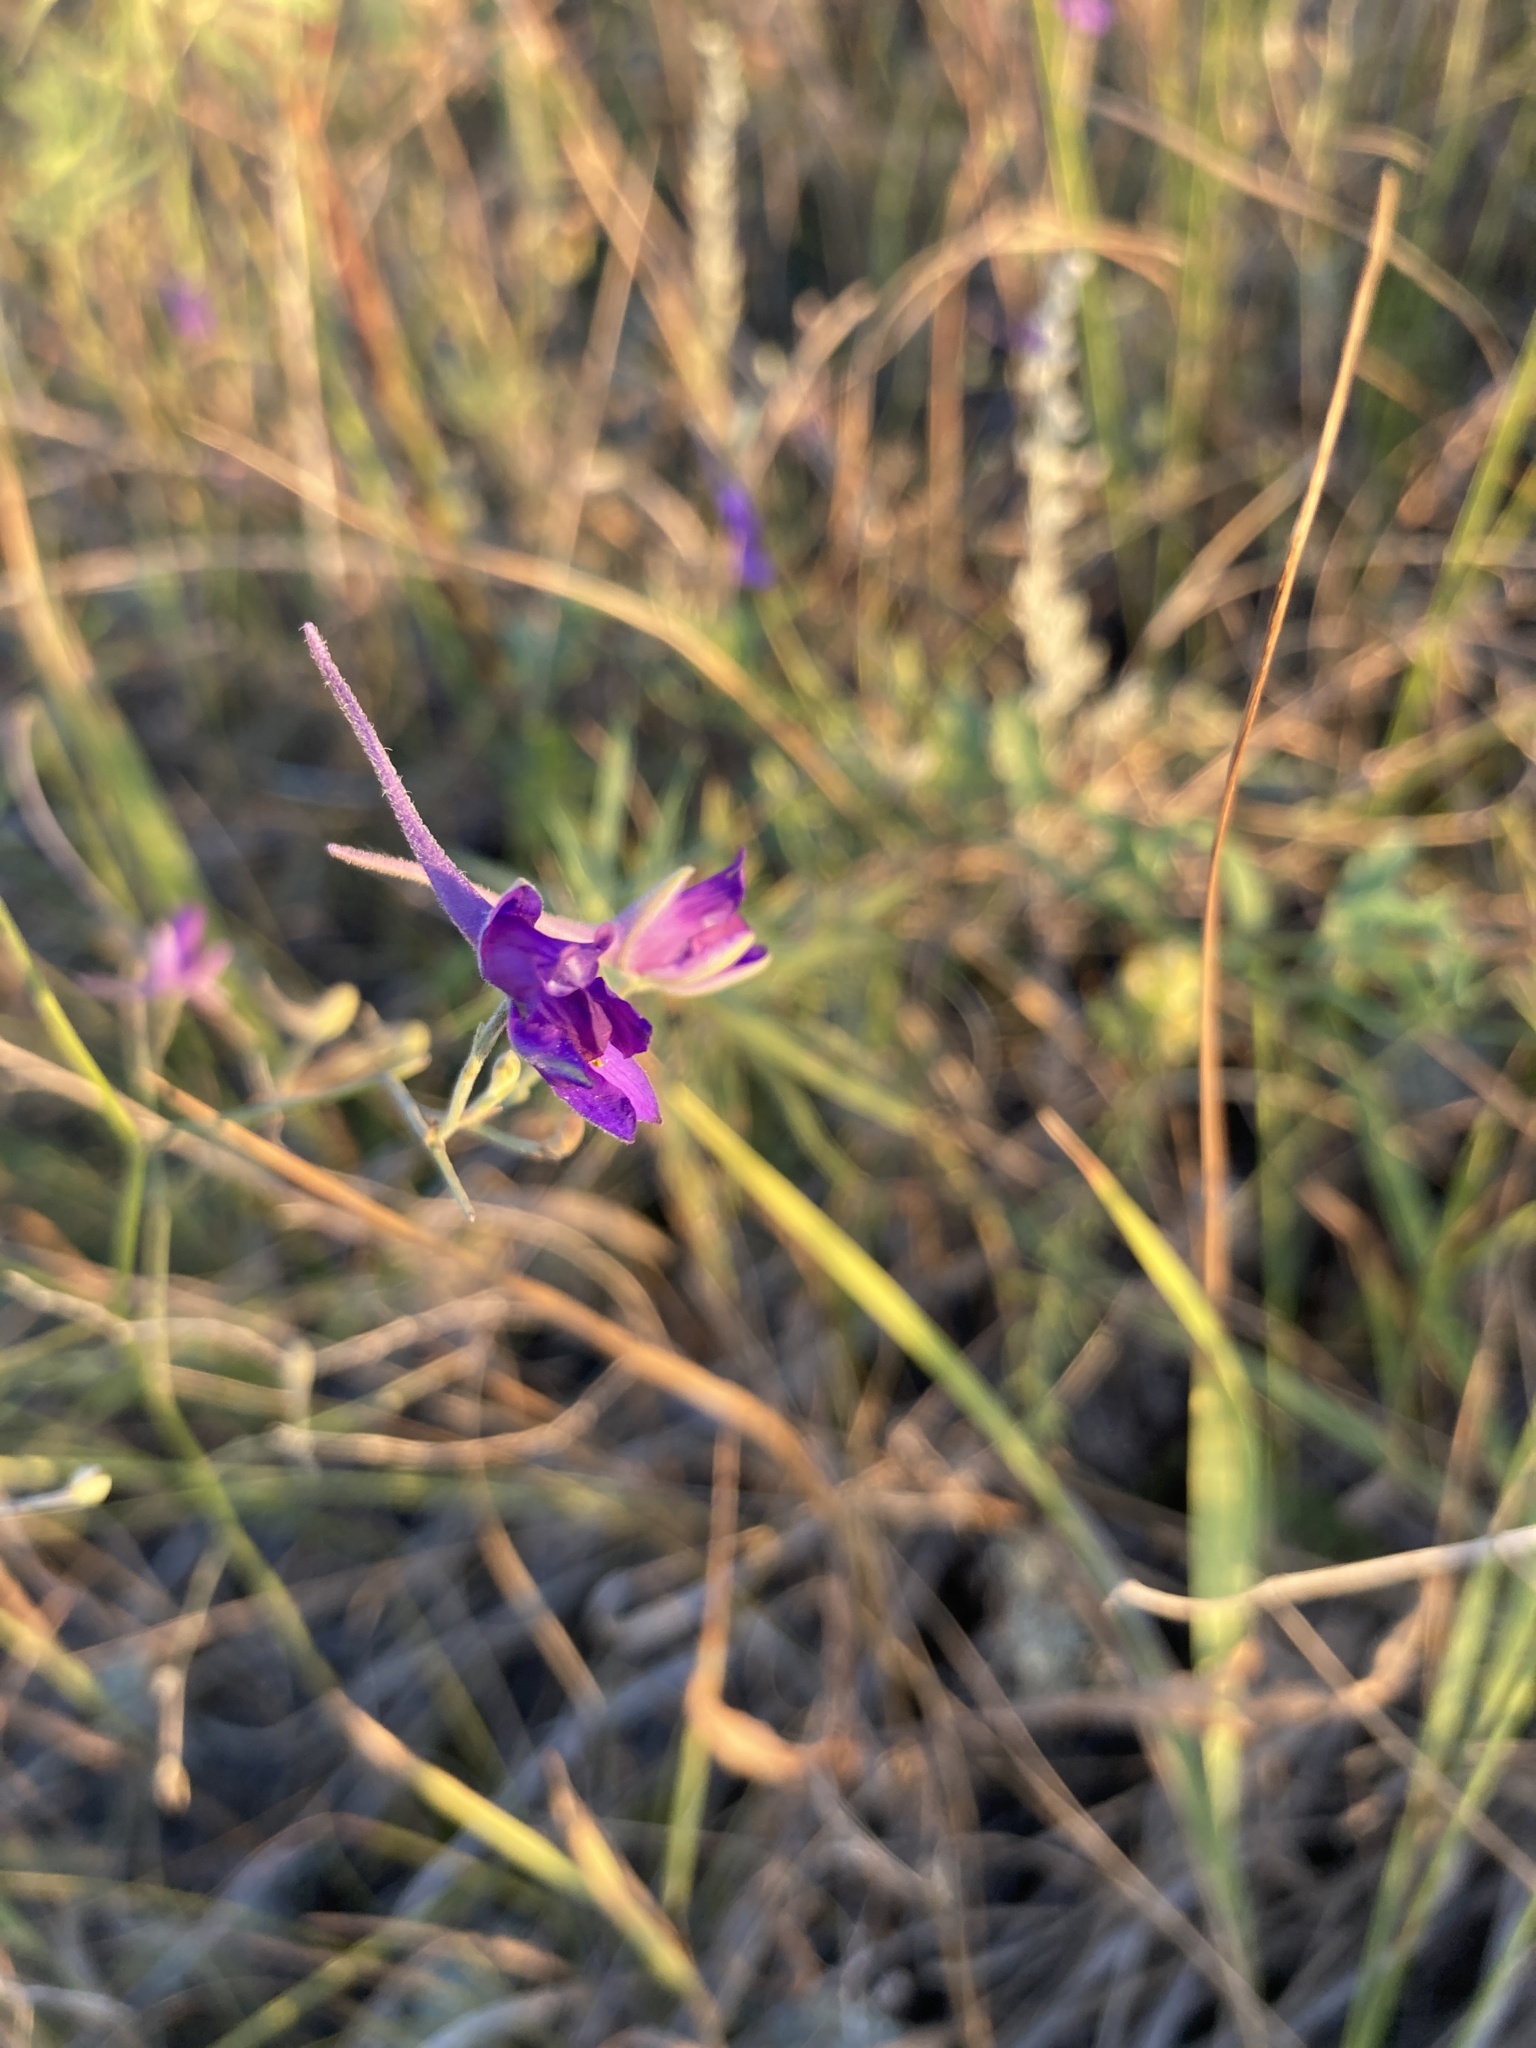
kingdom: Plantae
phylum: Tracheophyta
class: Magnoliopsida
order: Ranunculales
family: Ranunculaceae
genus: Delphinium
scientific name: Delphinium consolida
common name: Branching larkspur
